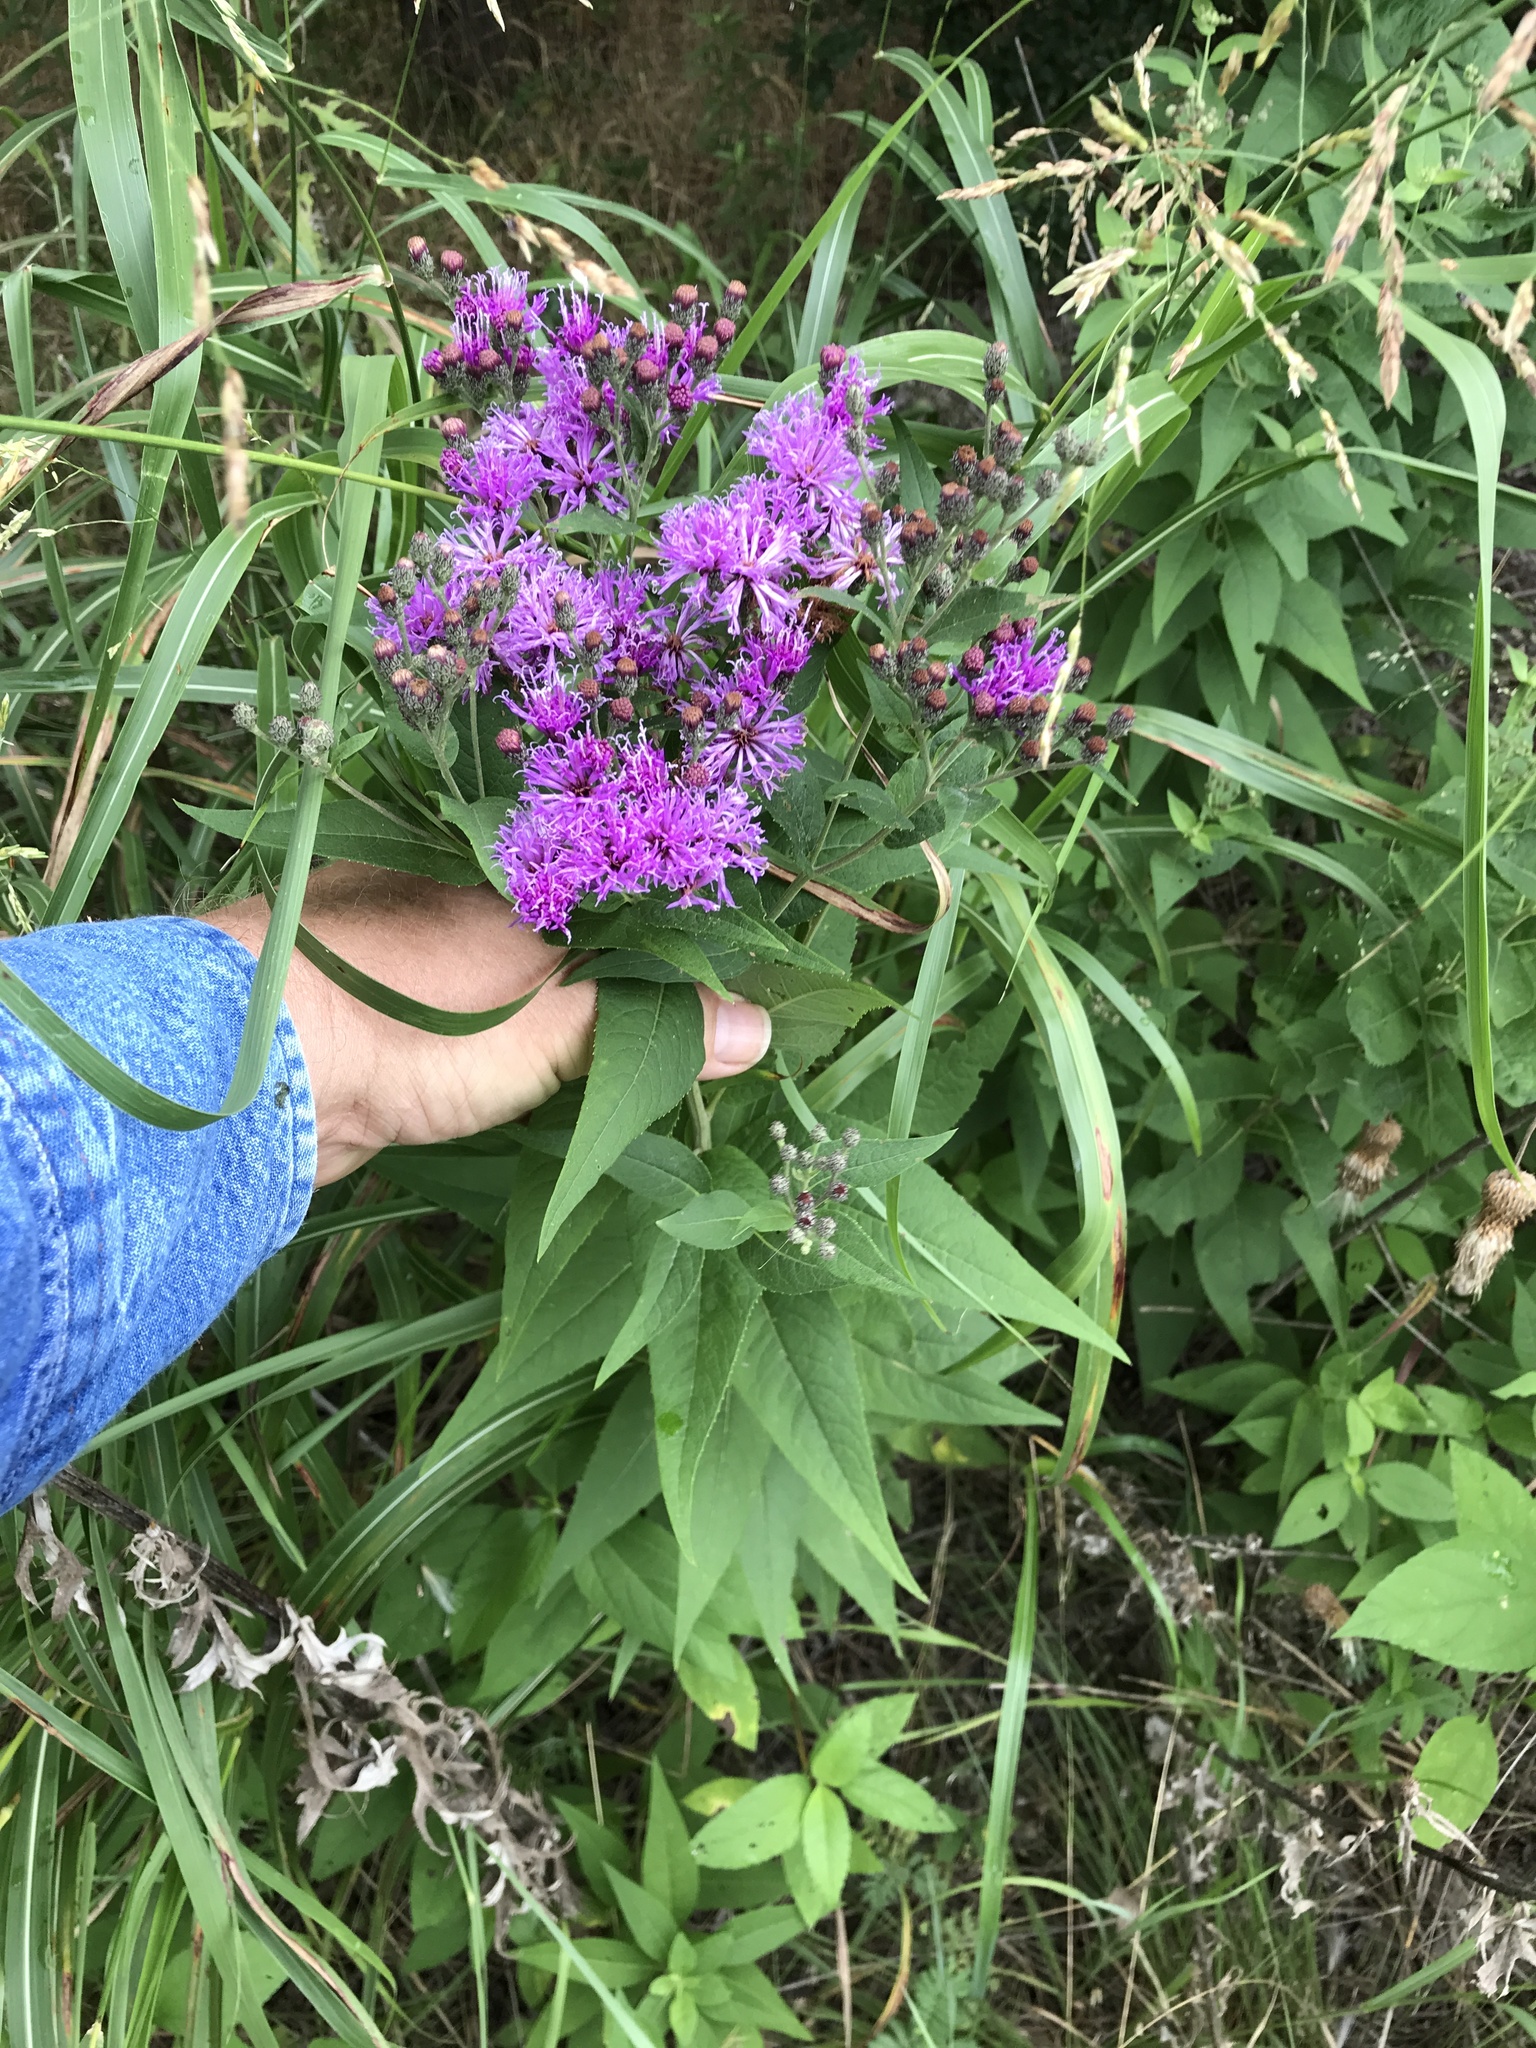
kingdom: Plantae
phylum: Tracheophyta
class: Magnoliopsida
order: Asterales
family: Asteraceae
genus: Vernonia
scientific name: Vernonia baldwinii
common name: Western ironweed
